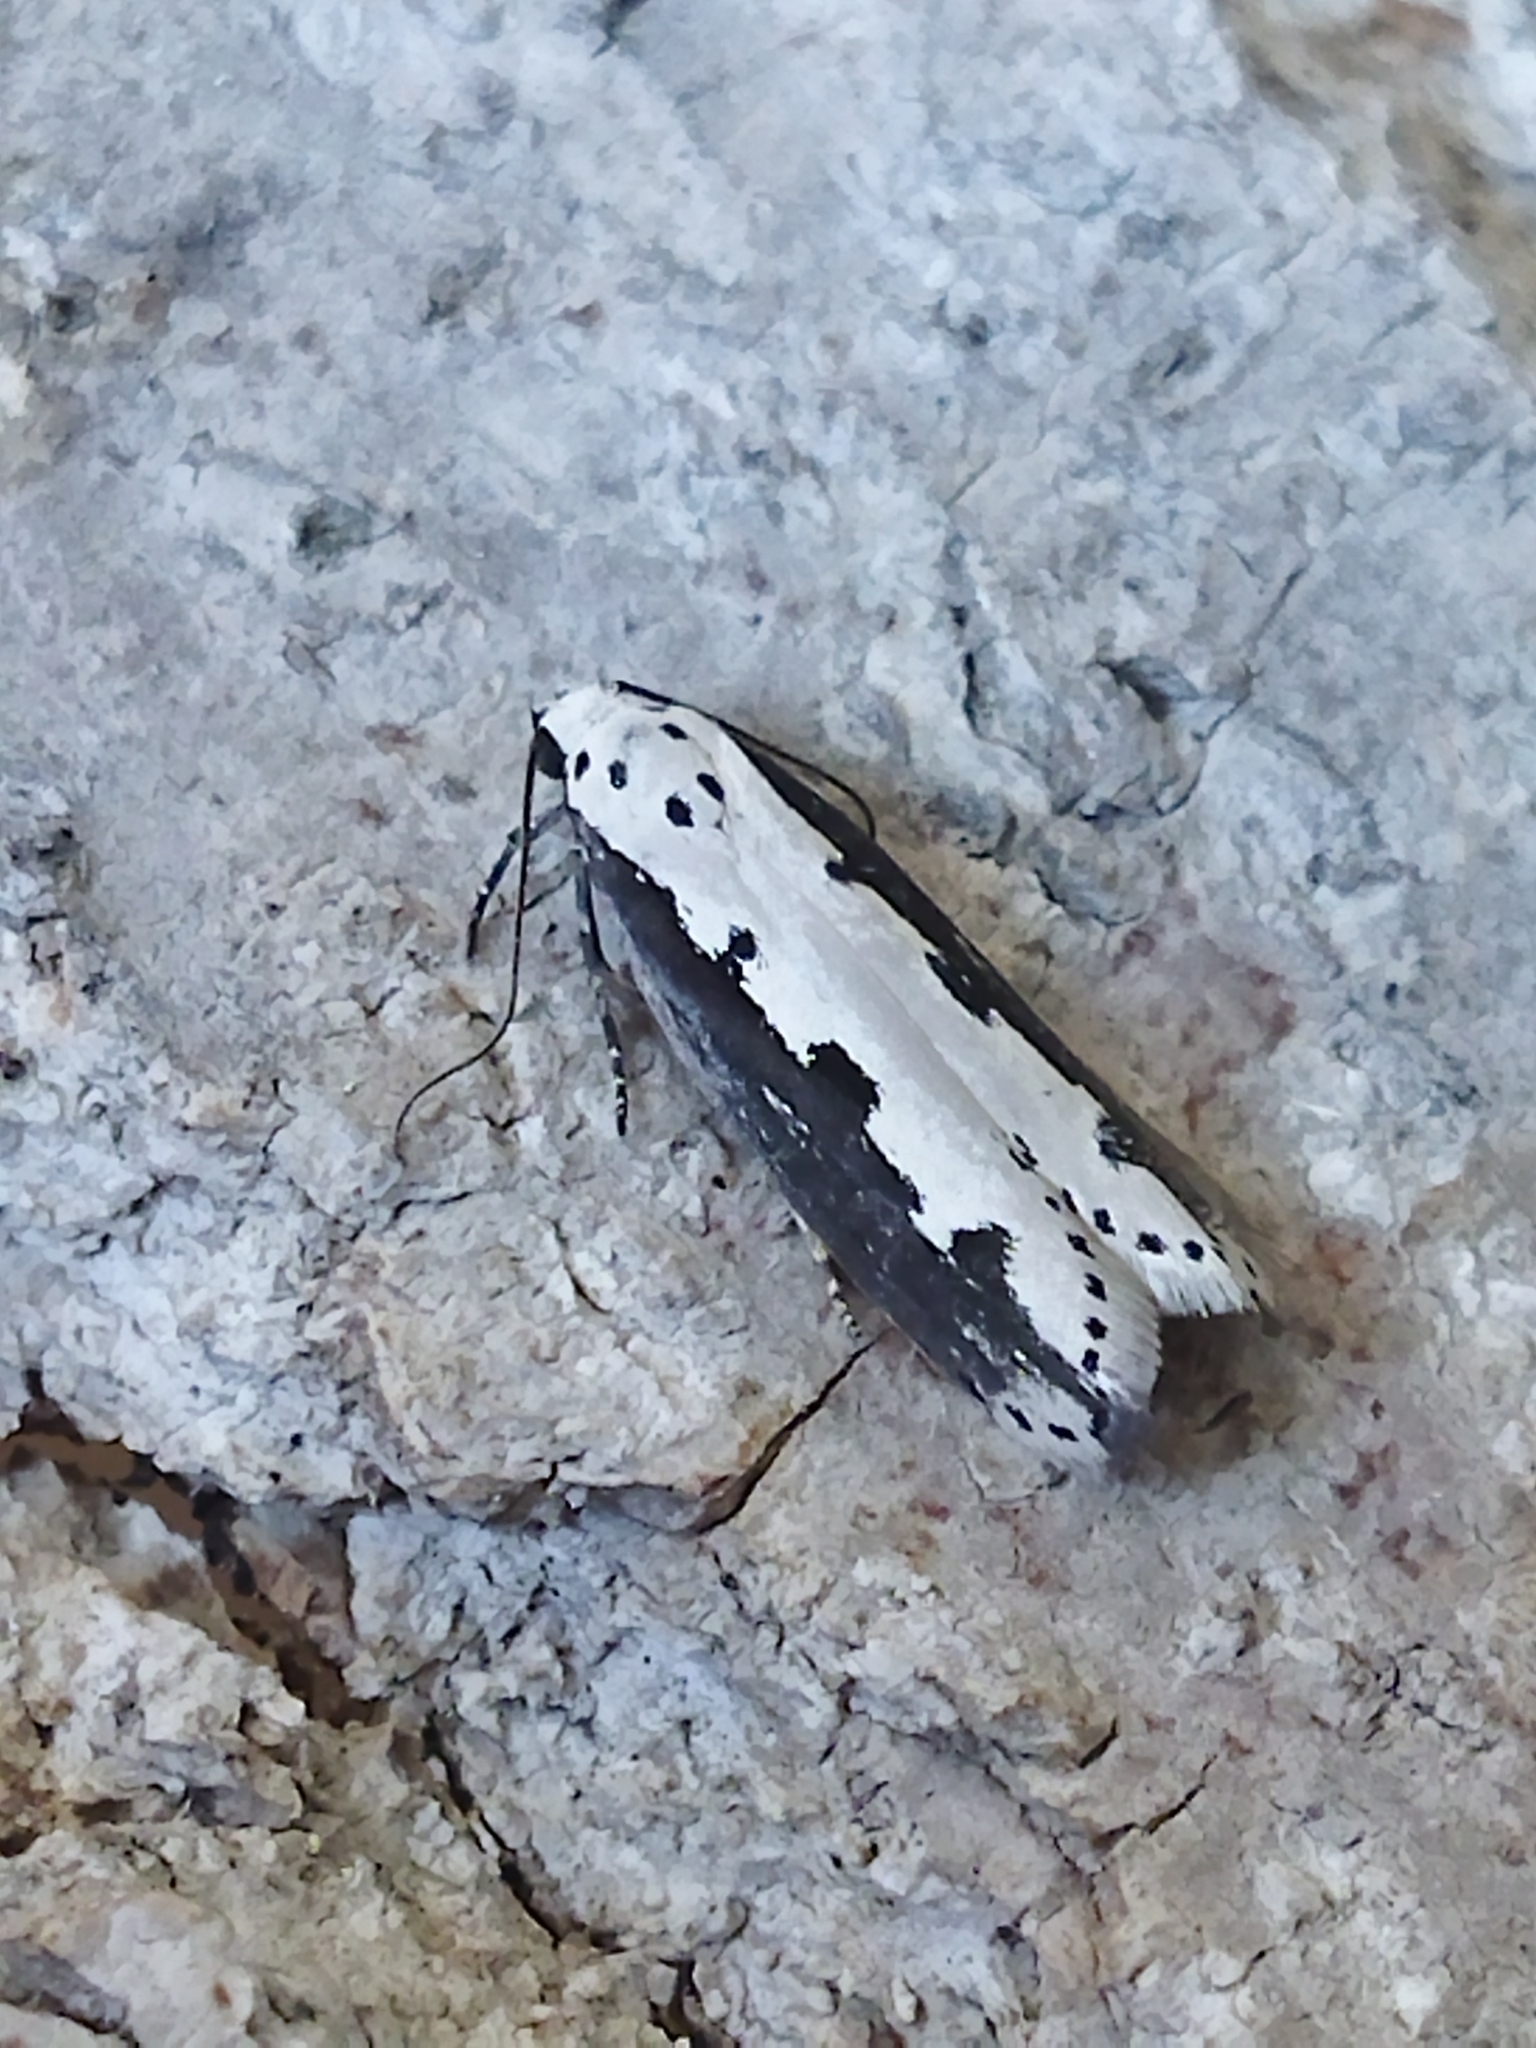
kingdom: Animalia
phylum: Arthropoda
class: Insecta
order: Lepidoptera
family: Ethmiidae
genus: Ethmia
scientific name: Ethmia bipunctella
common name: Bordered ermel
